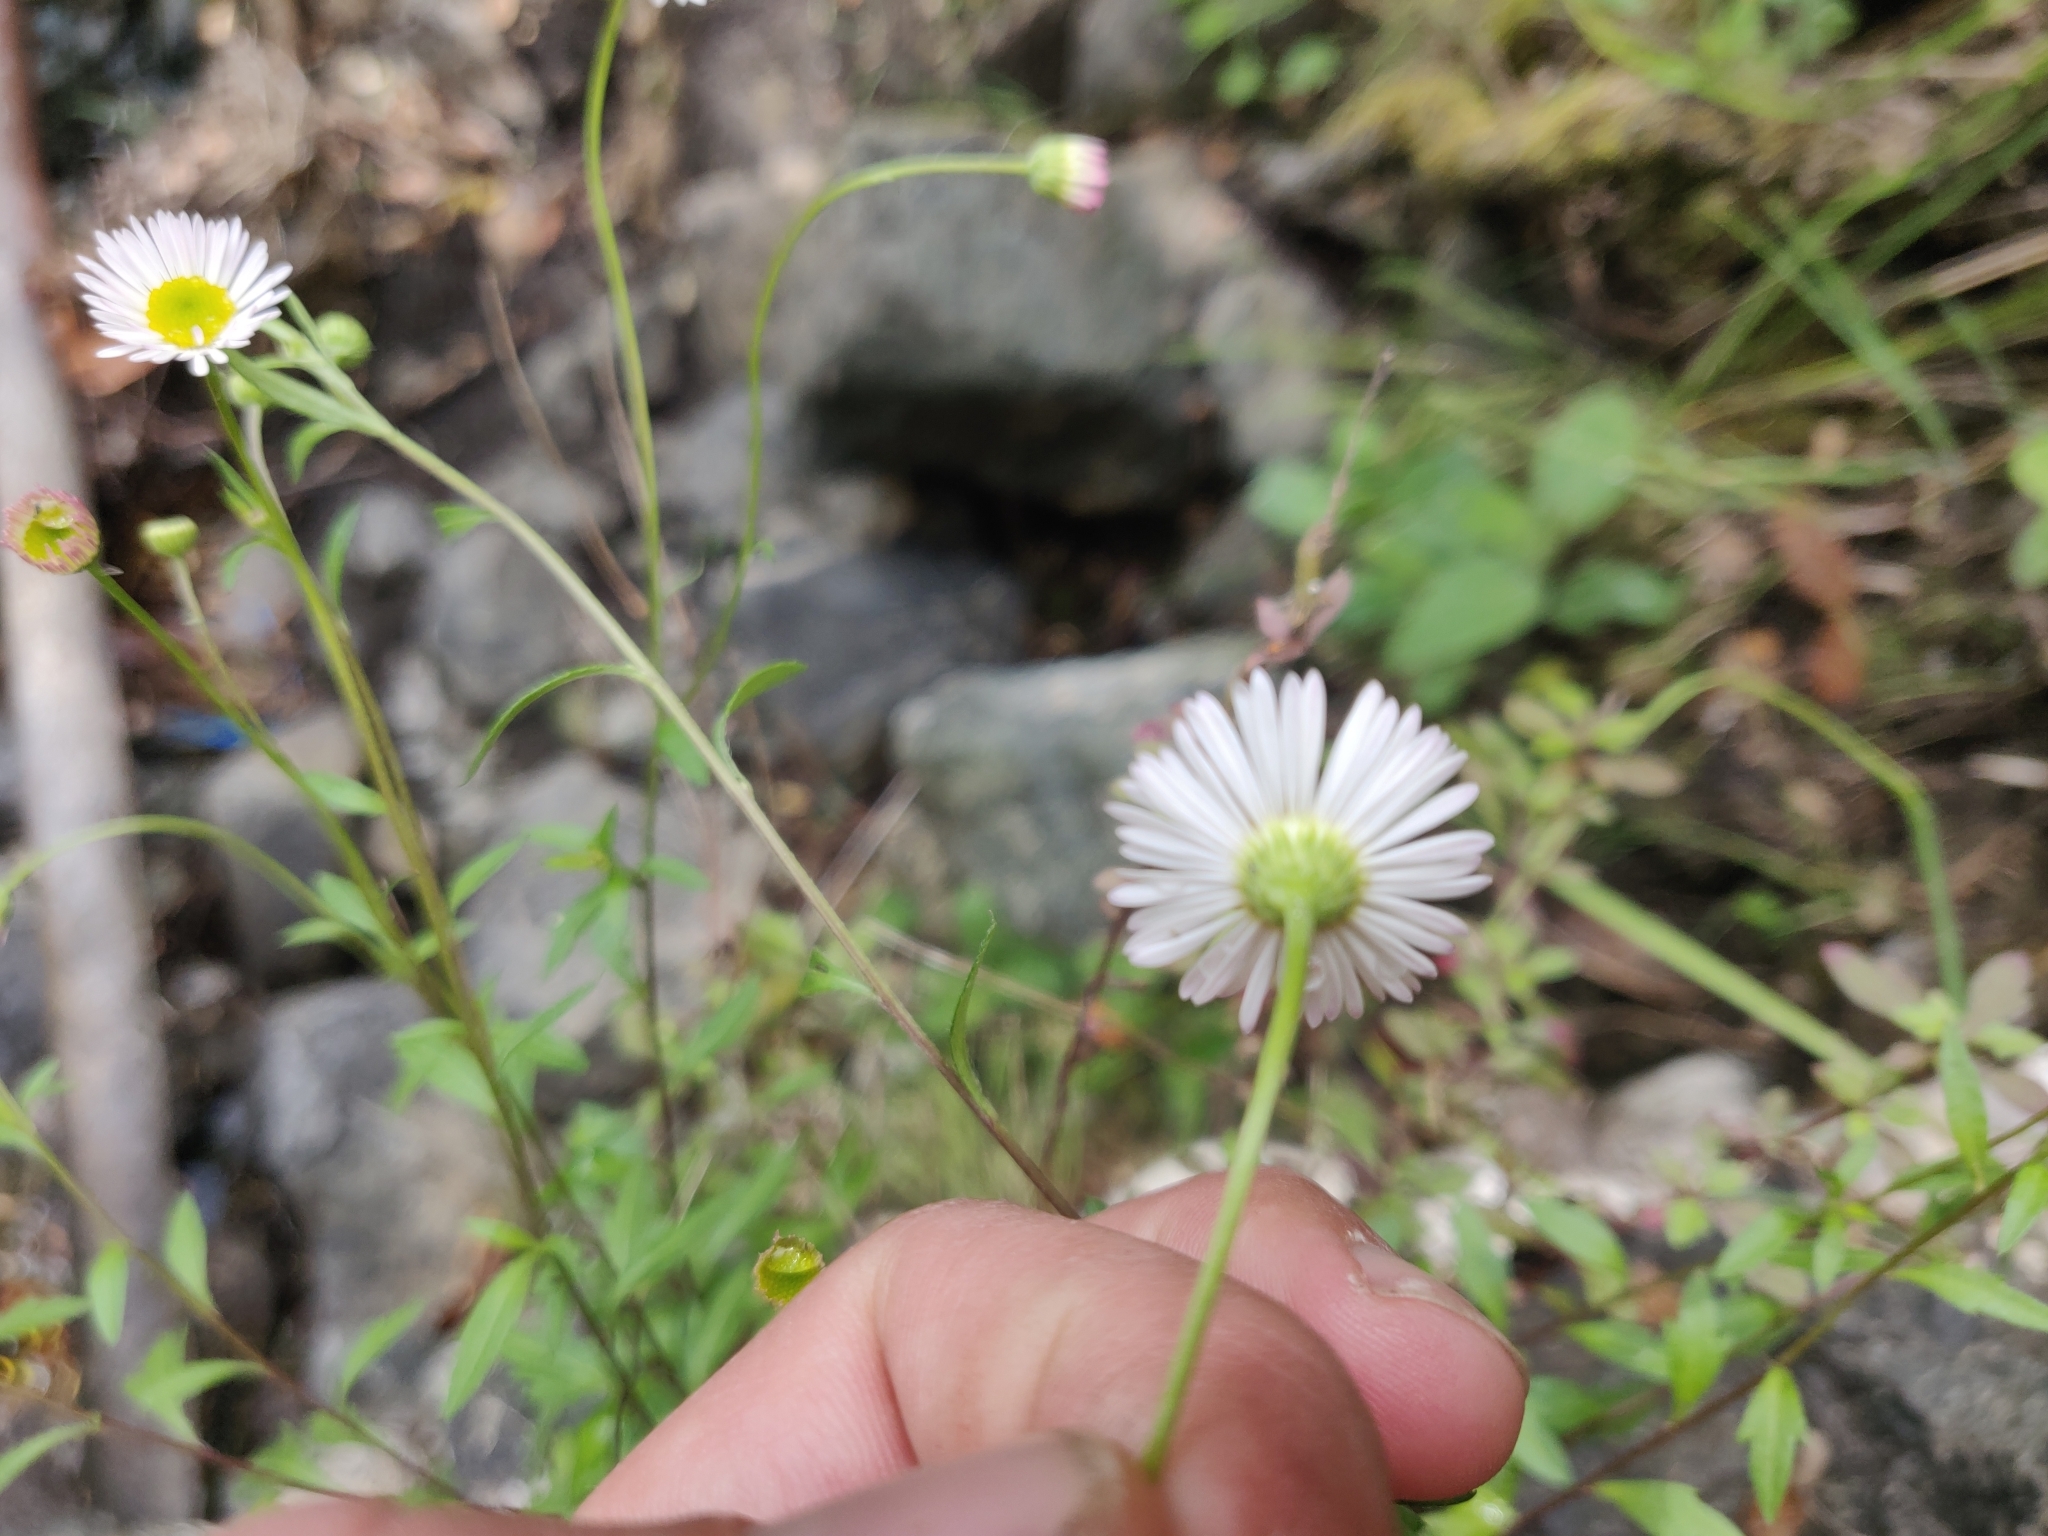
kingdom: Plantae
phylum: Tracheophyta
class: Magnoliopsida
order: Asterales
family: Asteraceae
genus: Erigeron
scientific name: Erigeron karvinskianus
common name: Mexican fleabane
